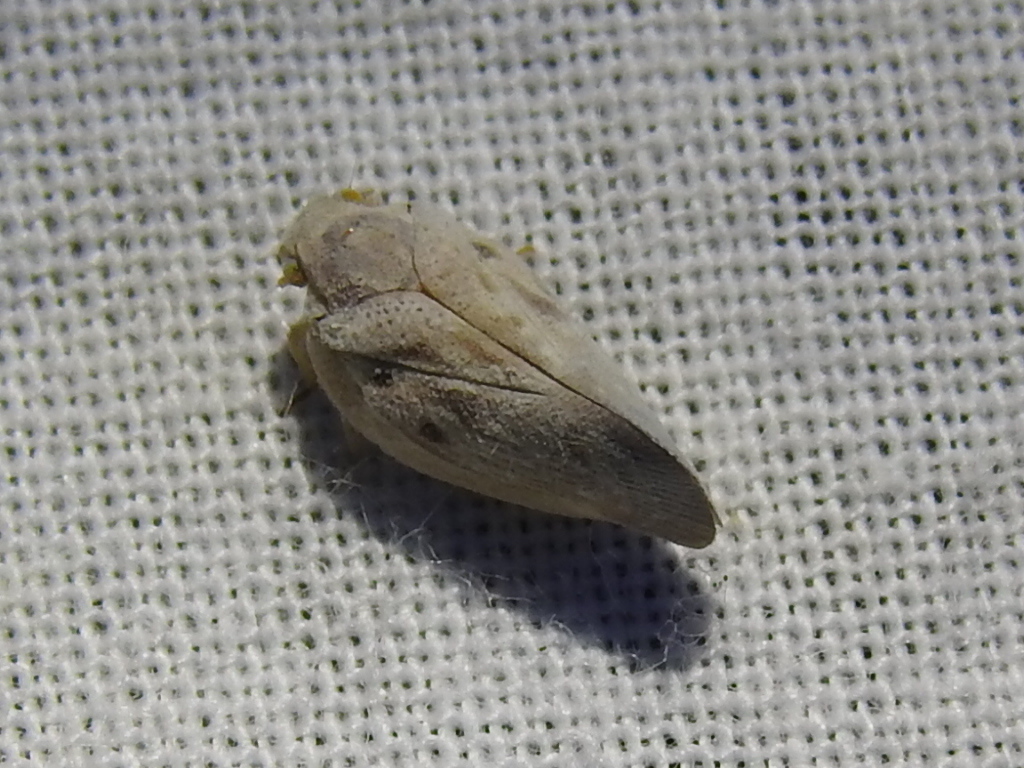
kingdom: Animalia
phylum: Arthropoda
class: Insecta
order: Hemiptera
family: Flatidae
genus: Metcalfa
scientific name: Metcalfa pruinosa
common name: Citrus flatid planthopper
